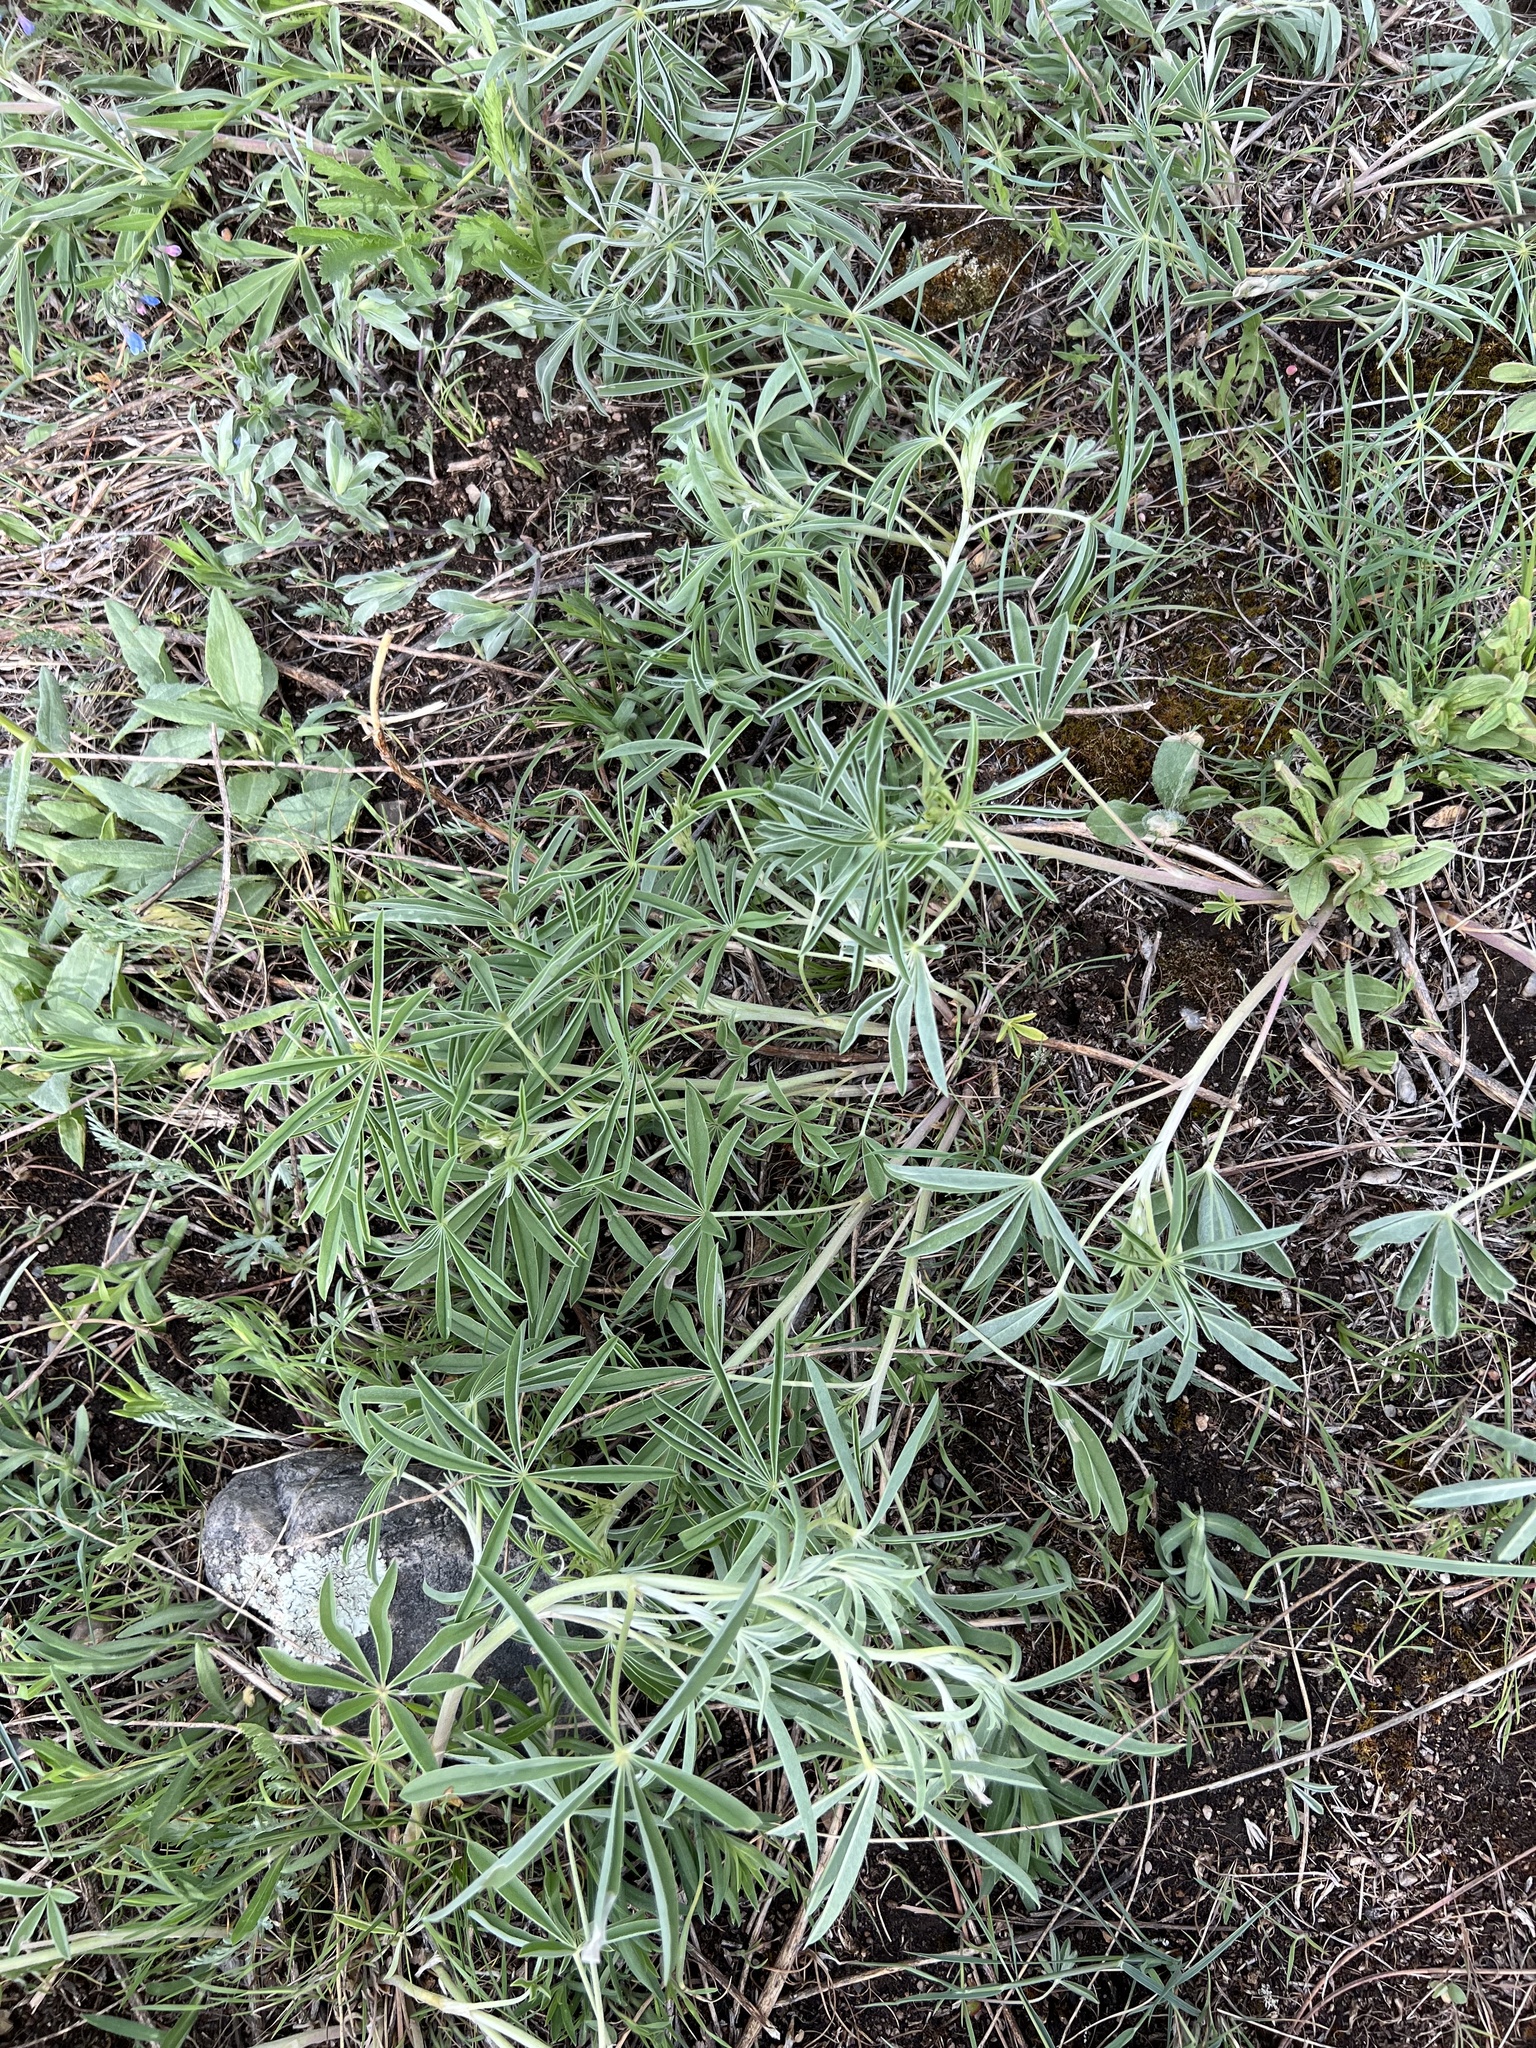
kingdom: Plantae
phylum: Tracheophyta
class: Magnoliopsida
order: Fabales
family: Fabaceae
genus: Lupinus
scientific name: Lupinus
